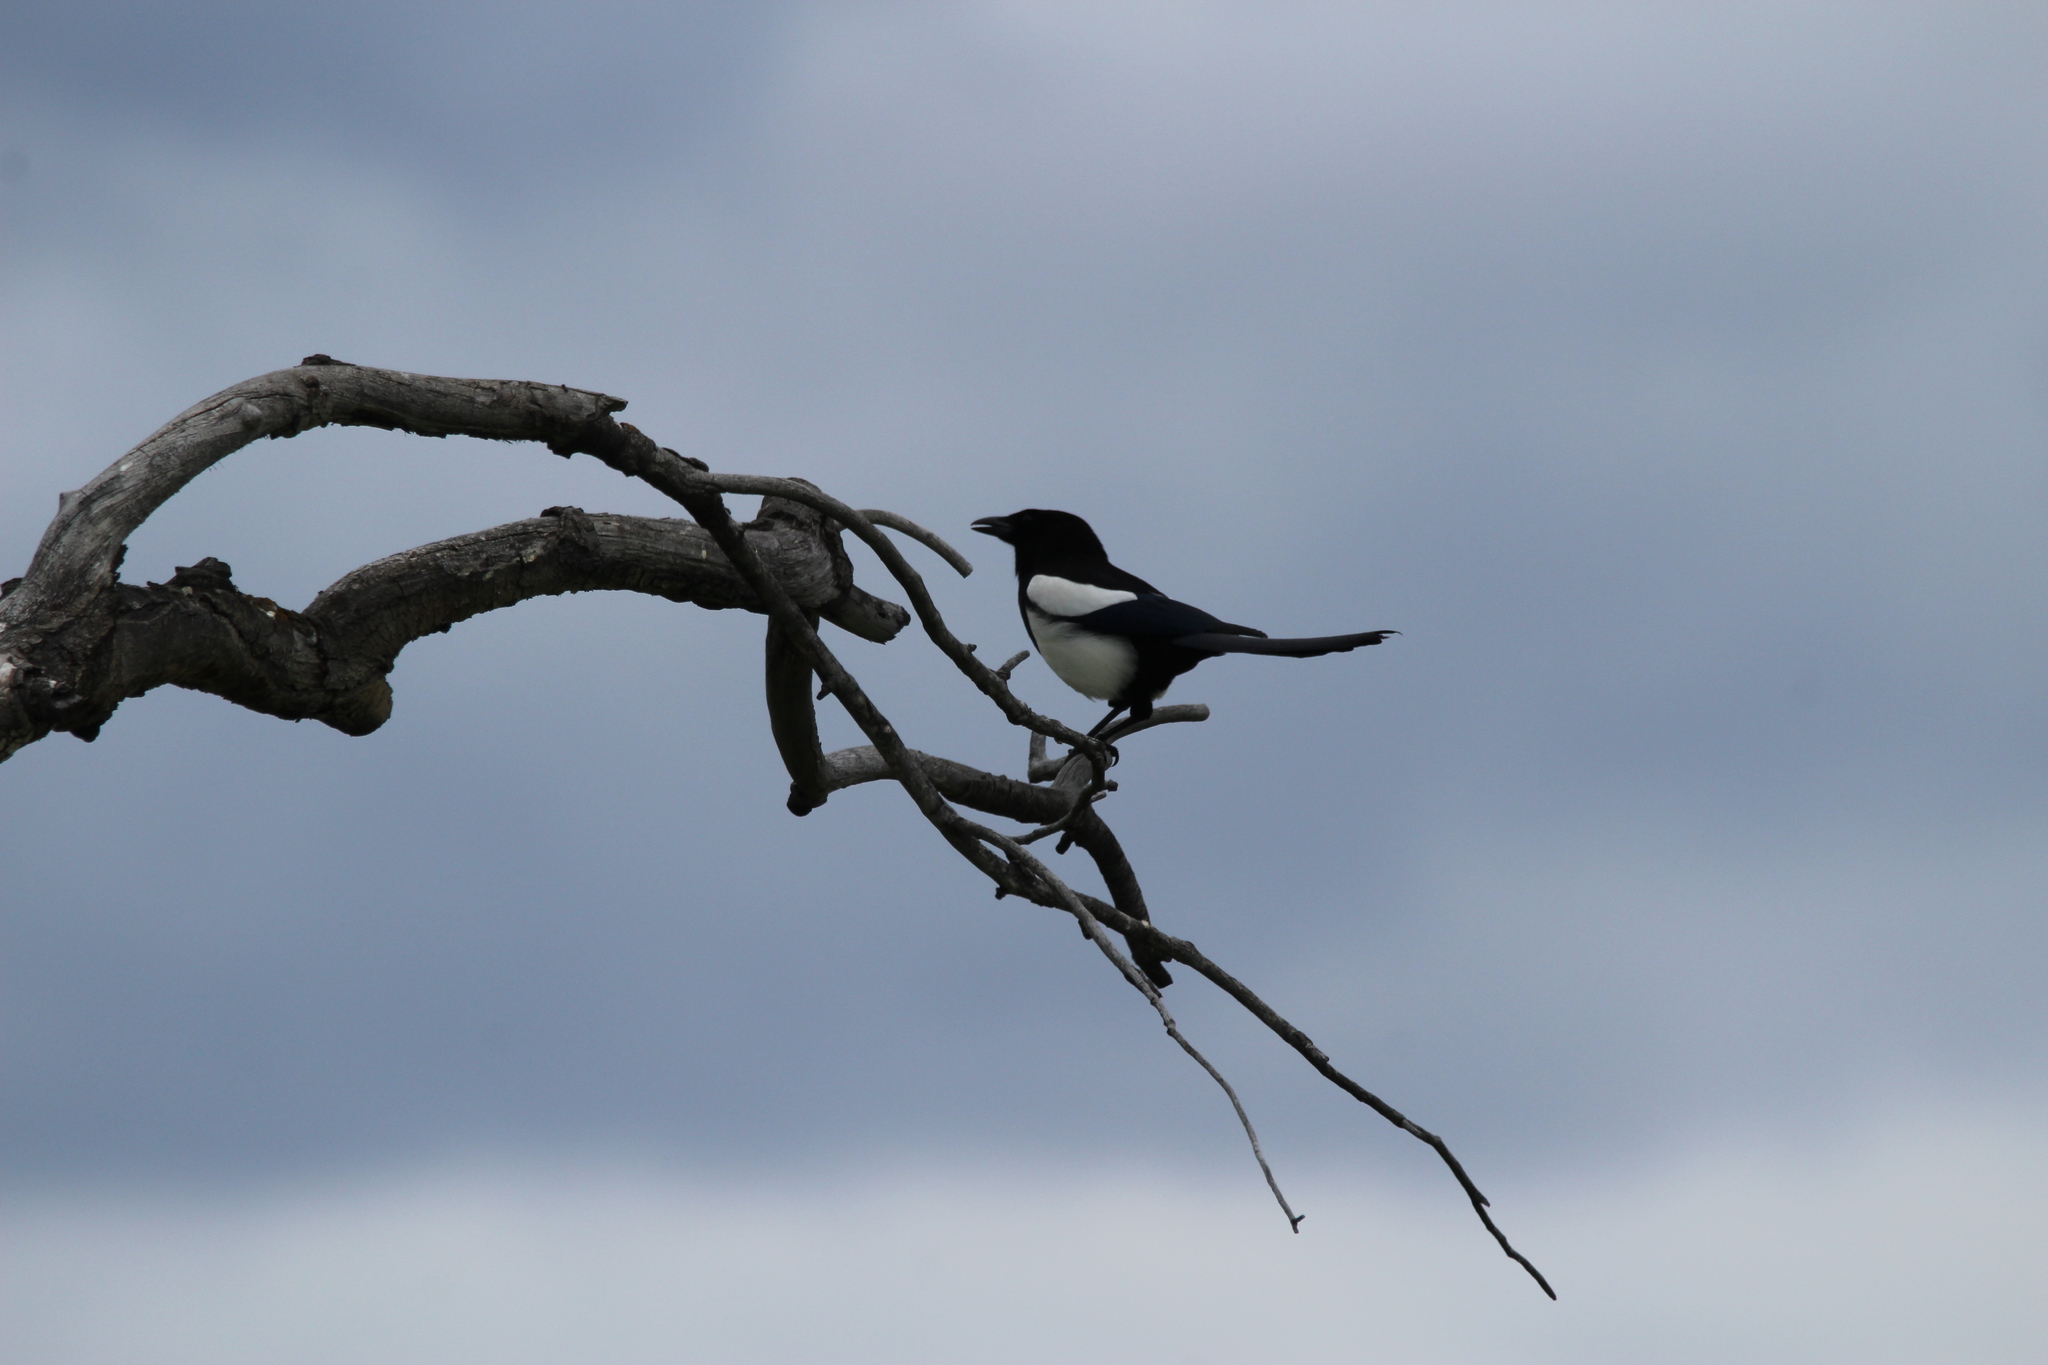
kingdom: Animalia
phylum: Chordata
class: Aves
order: Passeriformes
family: Corvidae
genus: Pica
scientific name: Pica hudsonia
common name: Black-billed magpie
